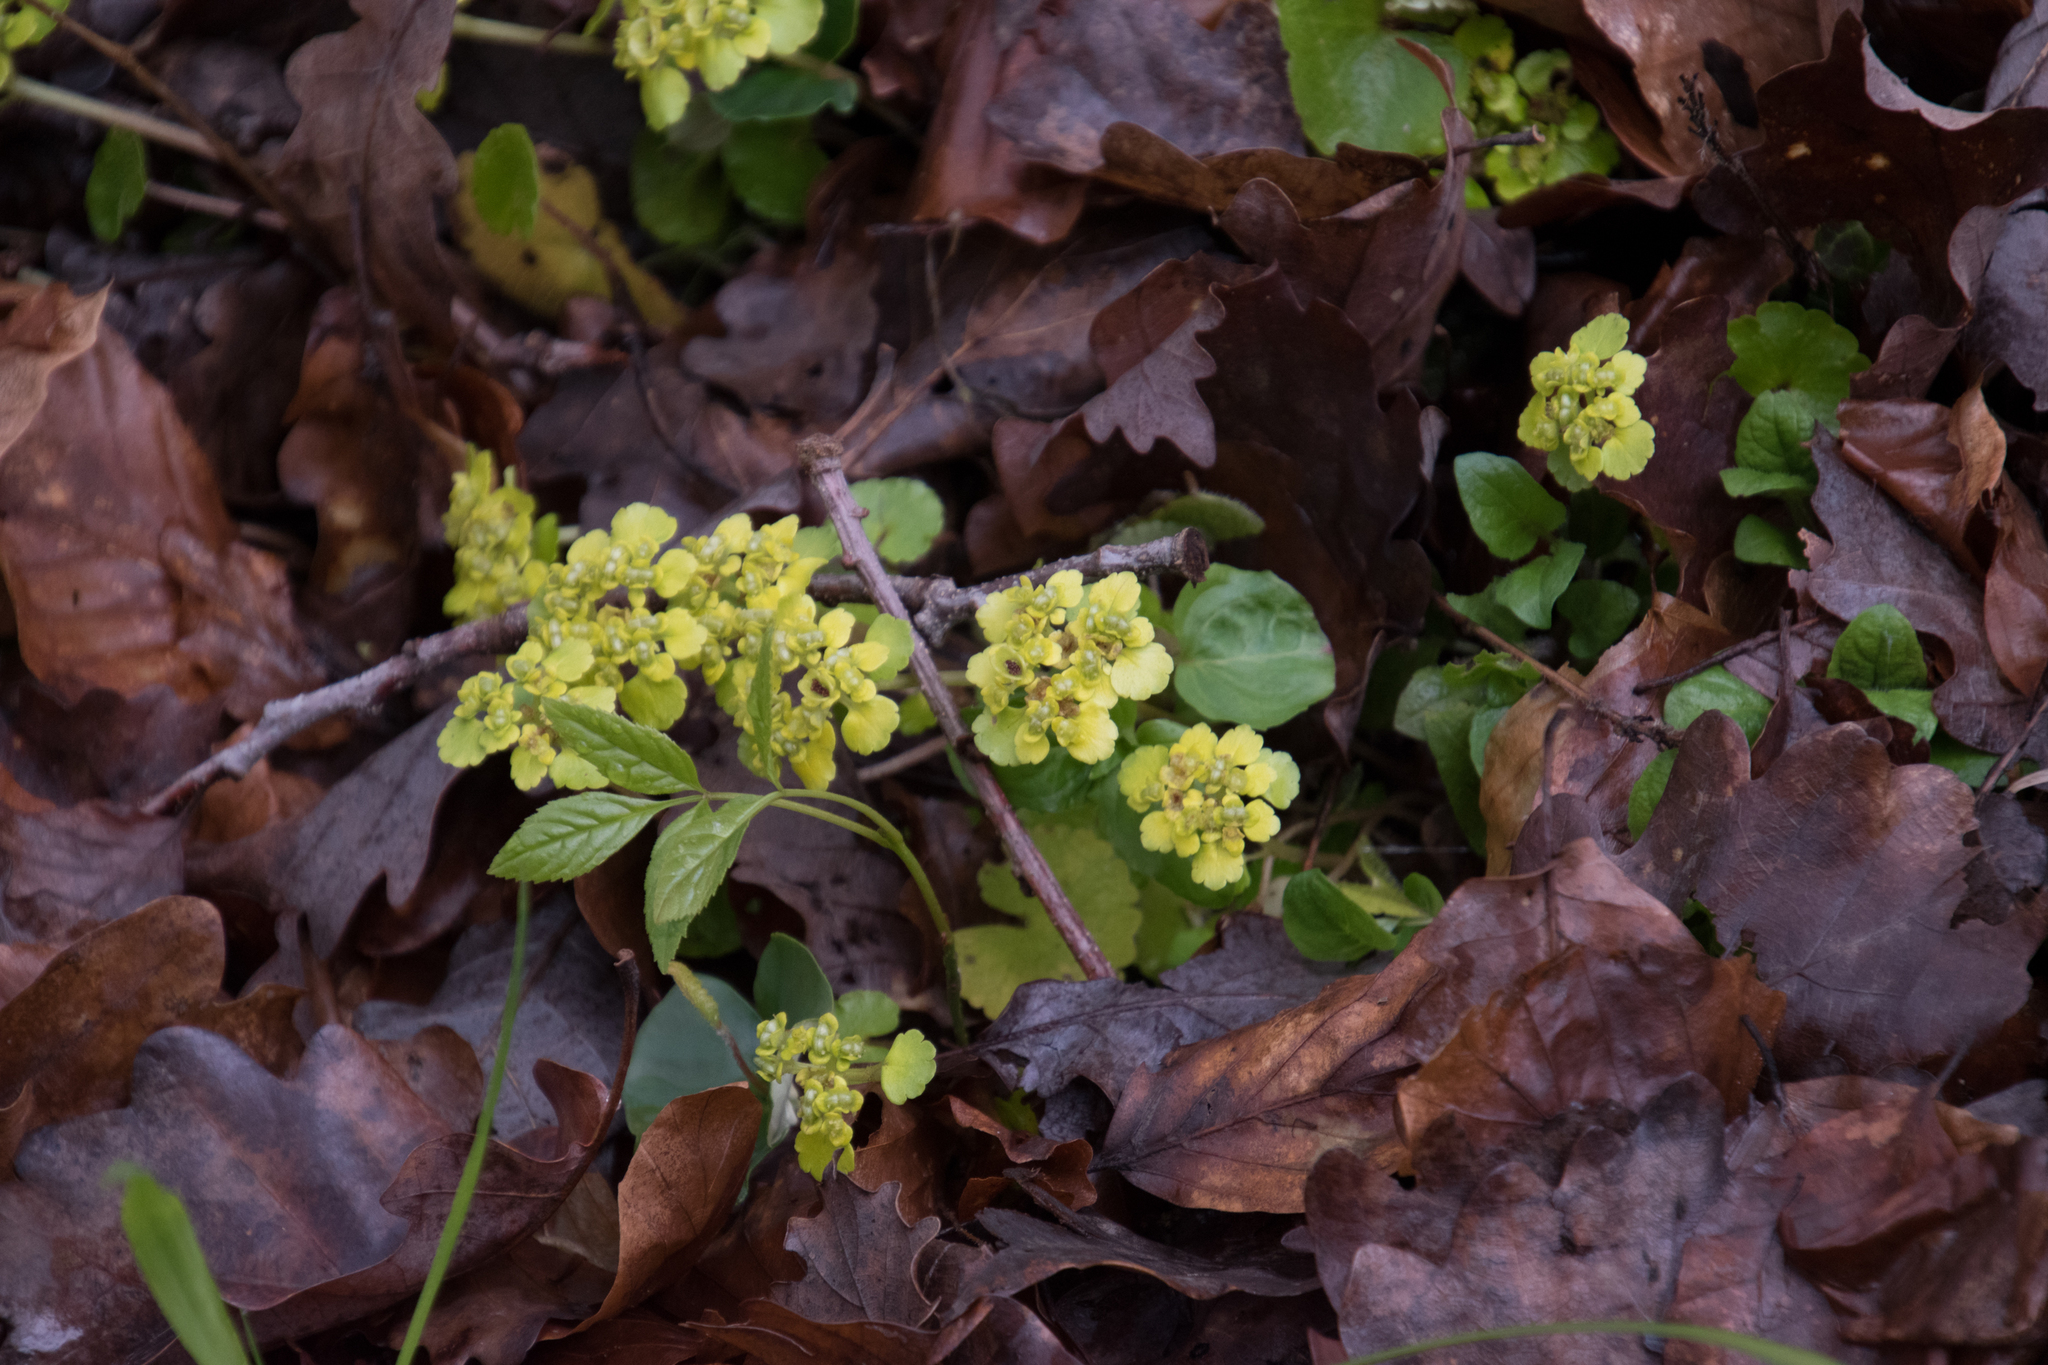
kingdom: Plantae
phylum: Tracheophyta
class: Magnoliopsida
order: Saxifragales
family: Saxifragaceae
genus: Chrysosplenium
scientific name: Chrysosplenium alternifolium
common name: Alternate-leaved golden-saxifrage
